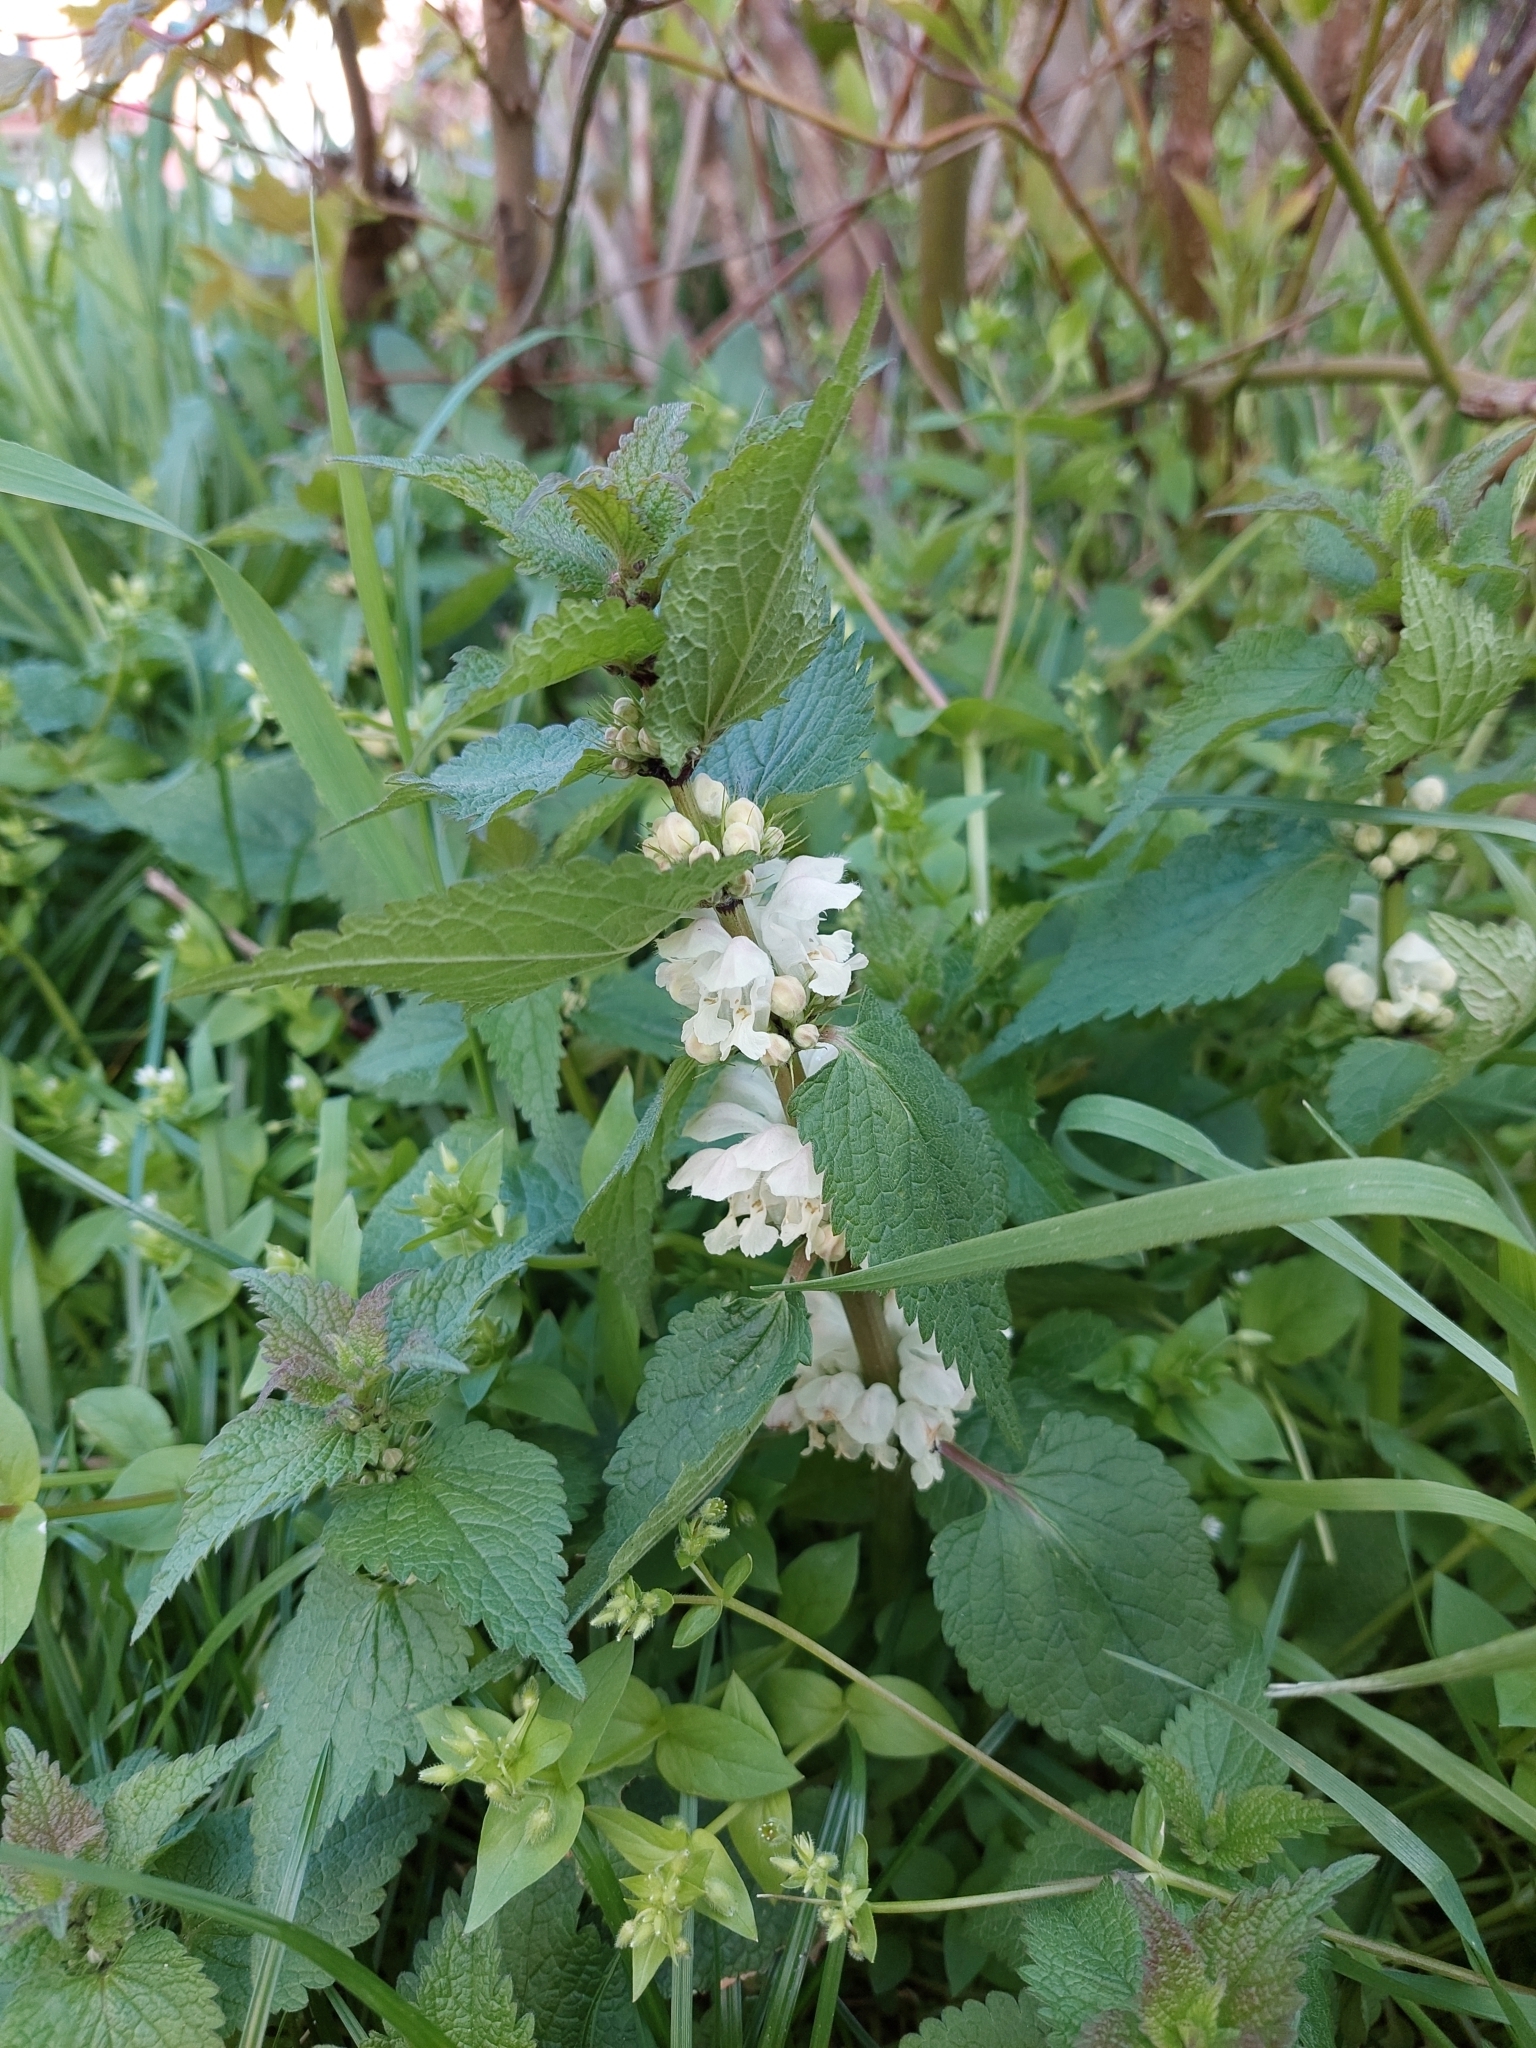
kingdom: Plantae
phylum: Tracheophyta
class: Magnoliopsida
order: Lamiales
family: Lamiaceae
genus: Lamium
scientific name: Lamium album
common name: White dead-nettle
